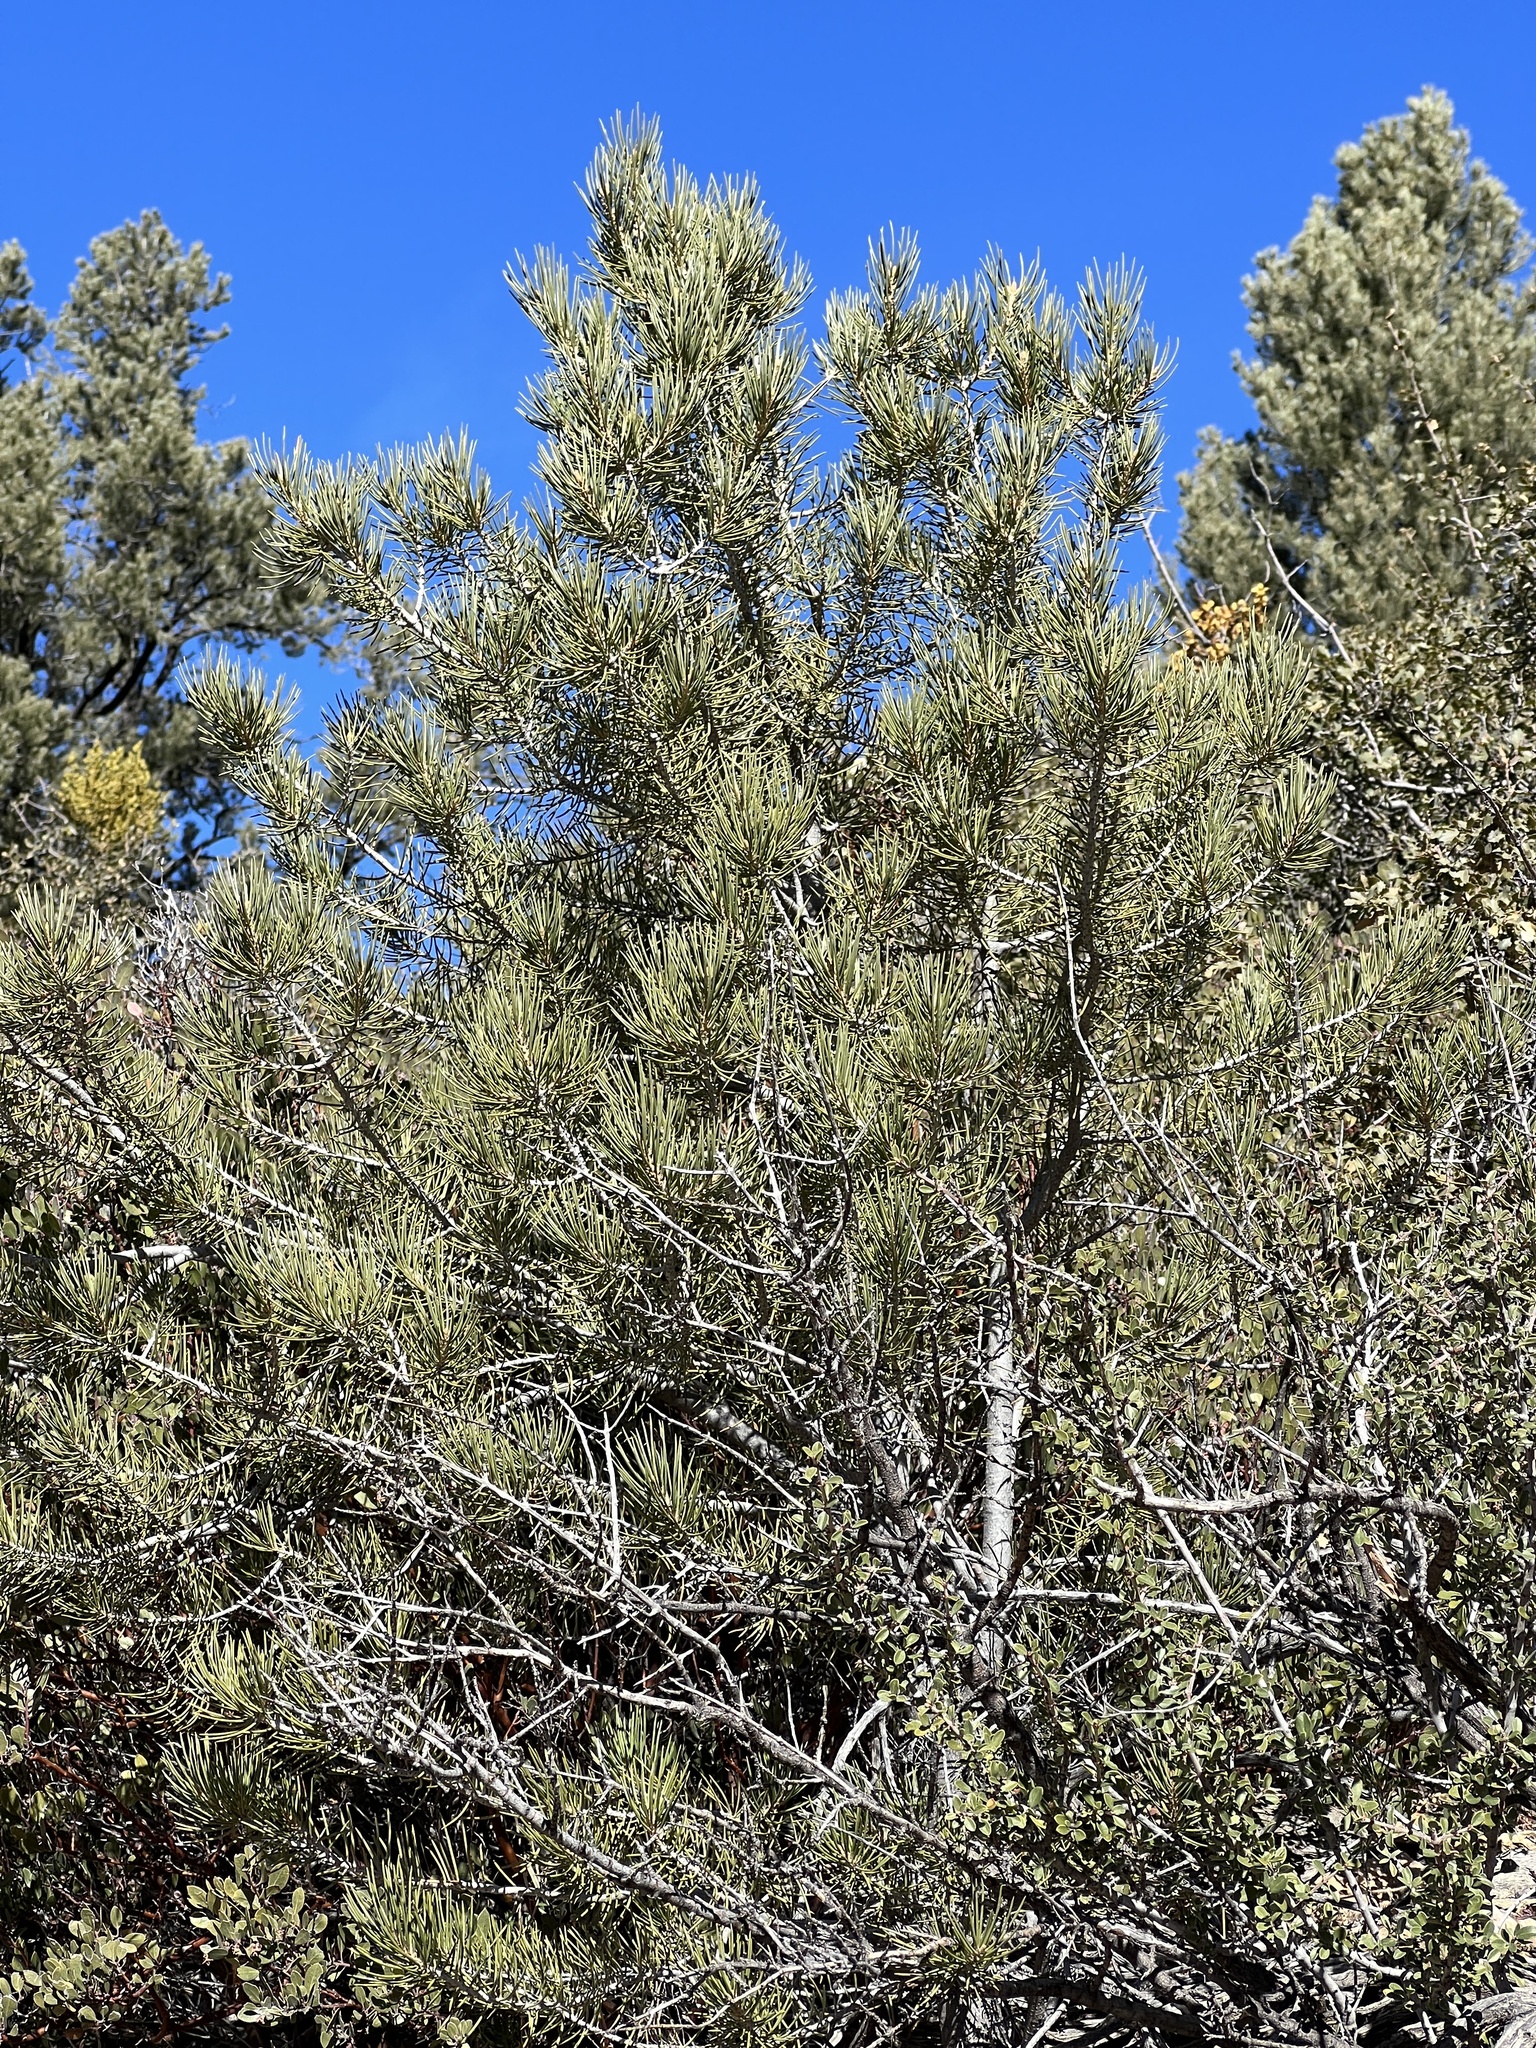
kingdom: Plantae
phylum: Tracheophyta
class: Pinopsida
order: Pinales
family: Pinaceae
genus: Pinus
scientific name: Pinus monophylla
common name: One-leaved nut pine
